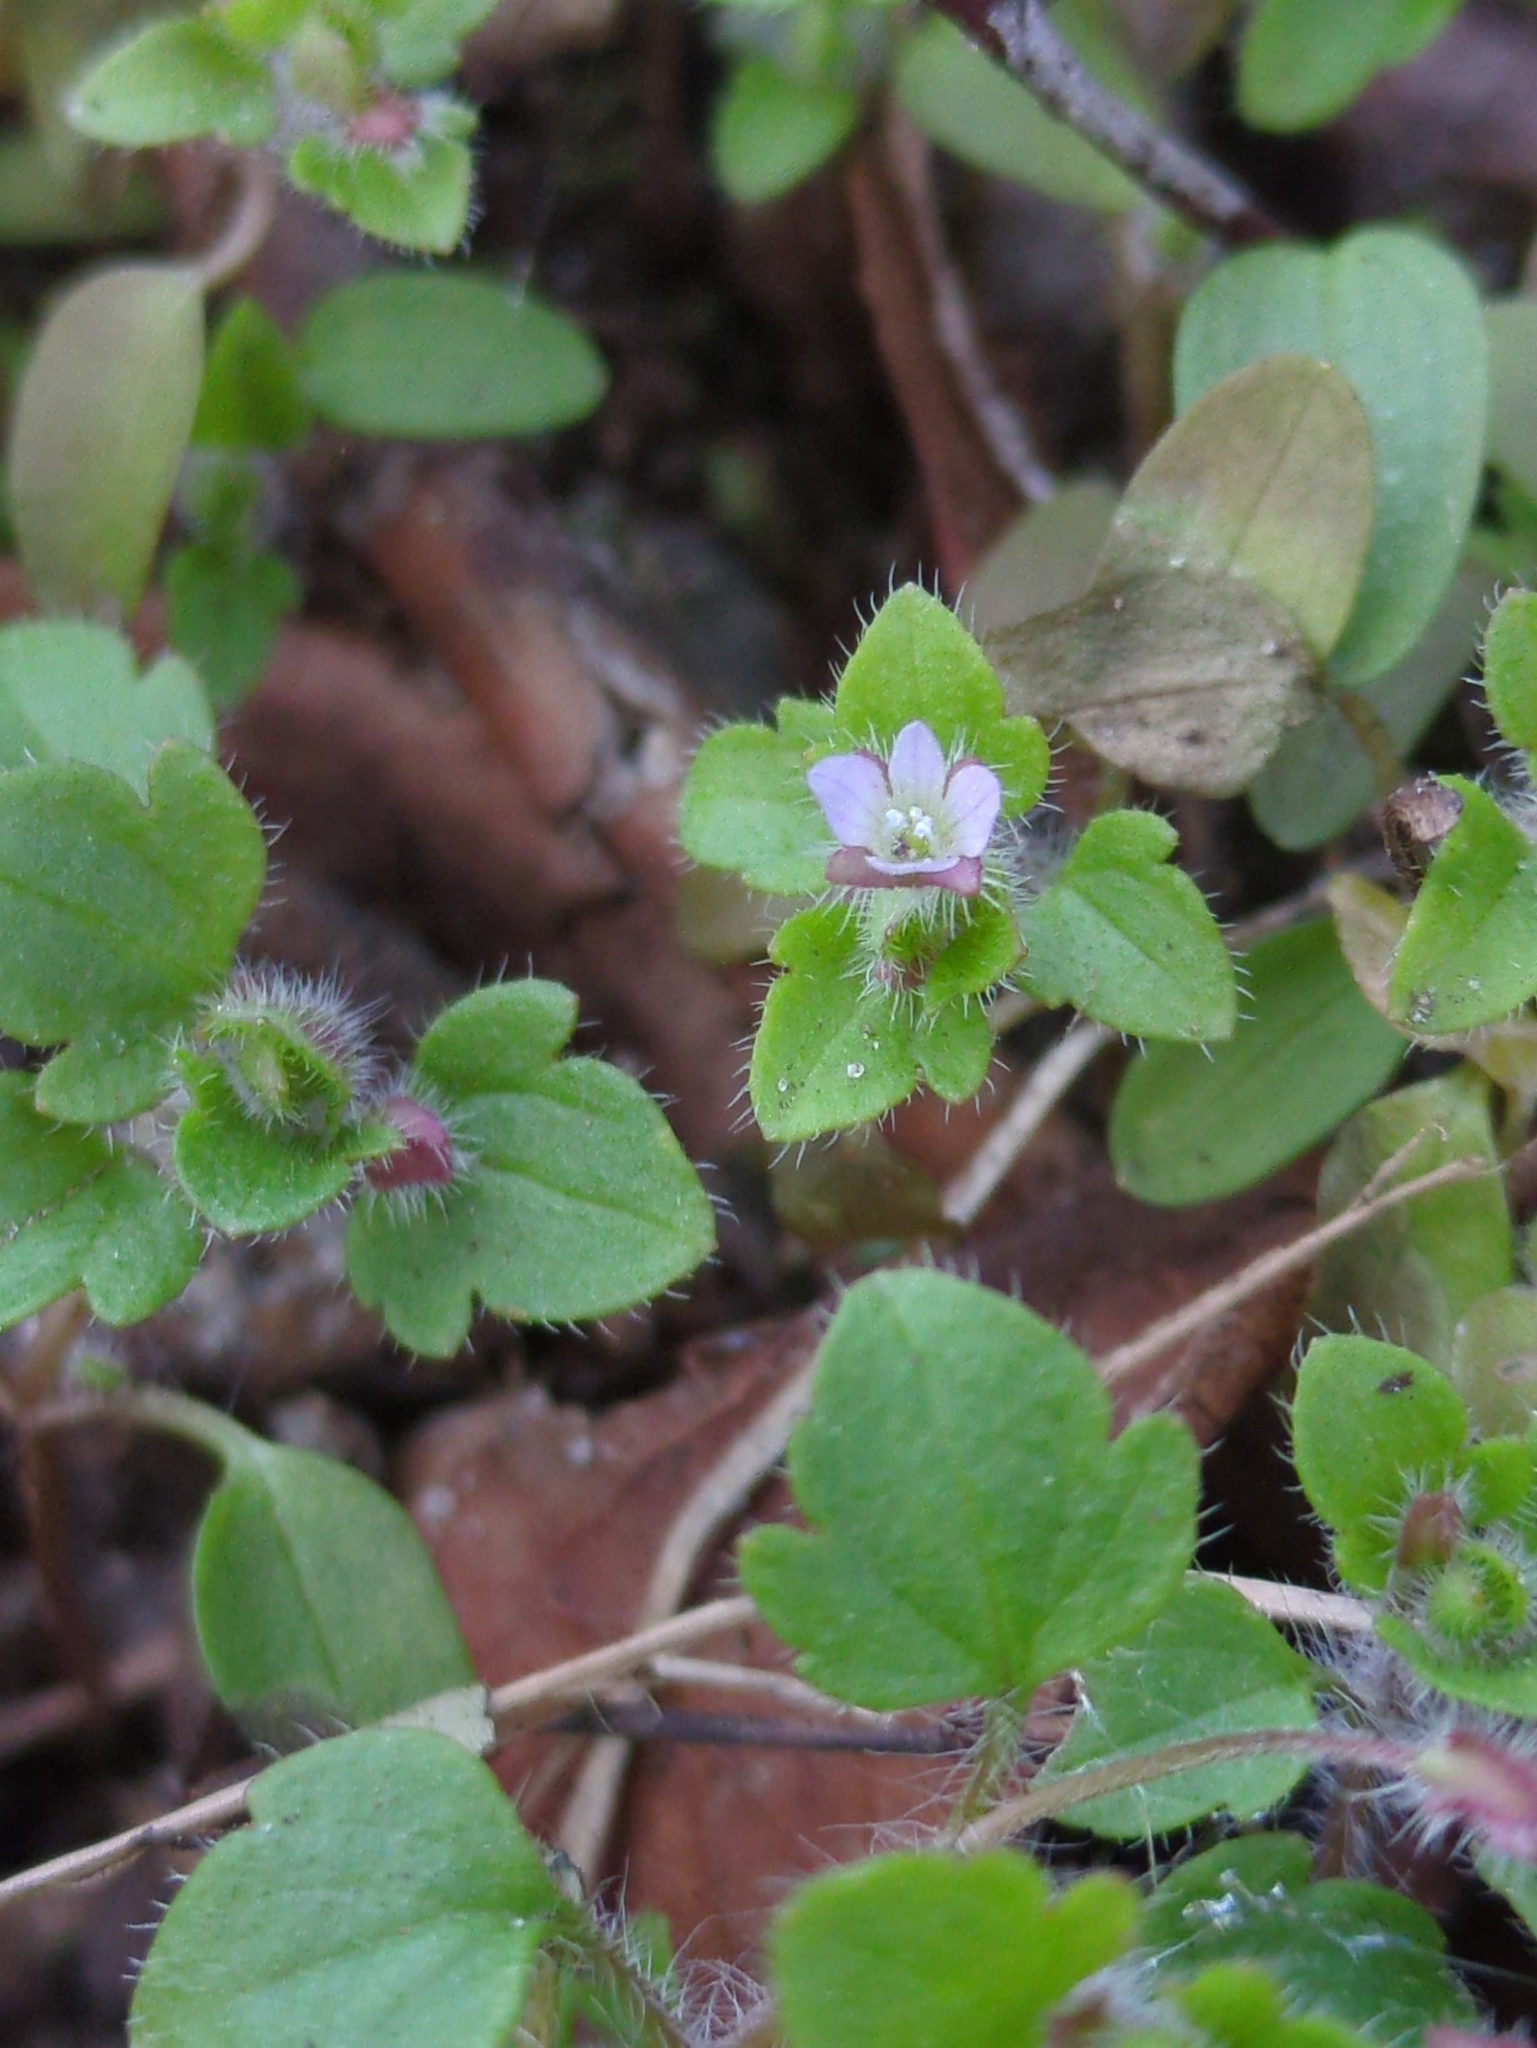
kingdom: Plantae
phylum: Tracheophyta
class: Magnoliopsida
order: Lamiales
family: Plantaginaceae
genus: Veronica
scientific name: Veronica sublobata
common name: False ivy-leaved speedwell
